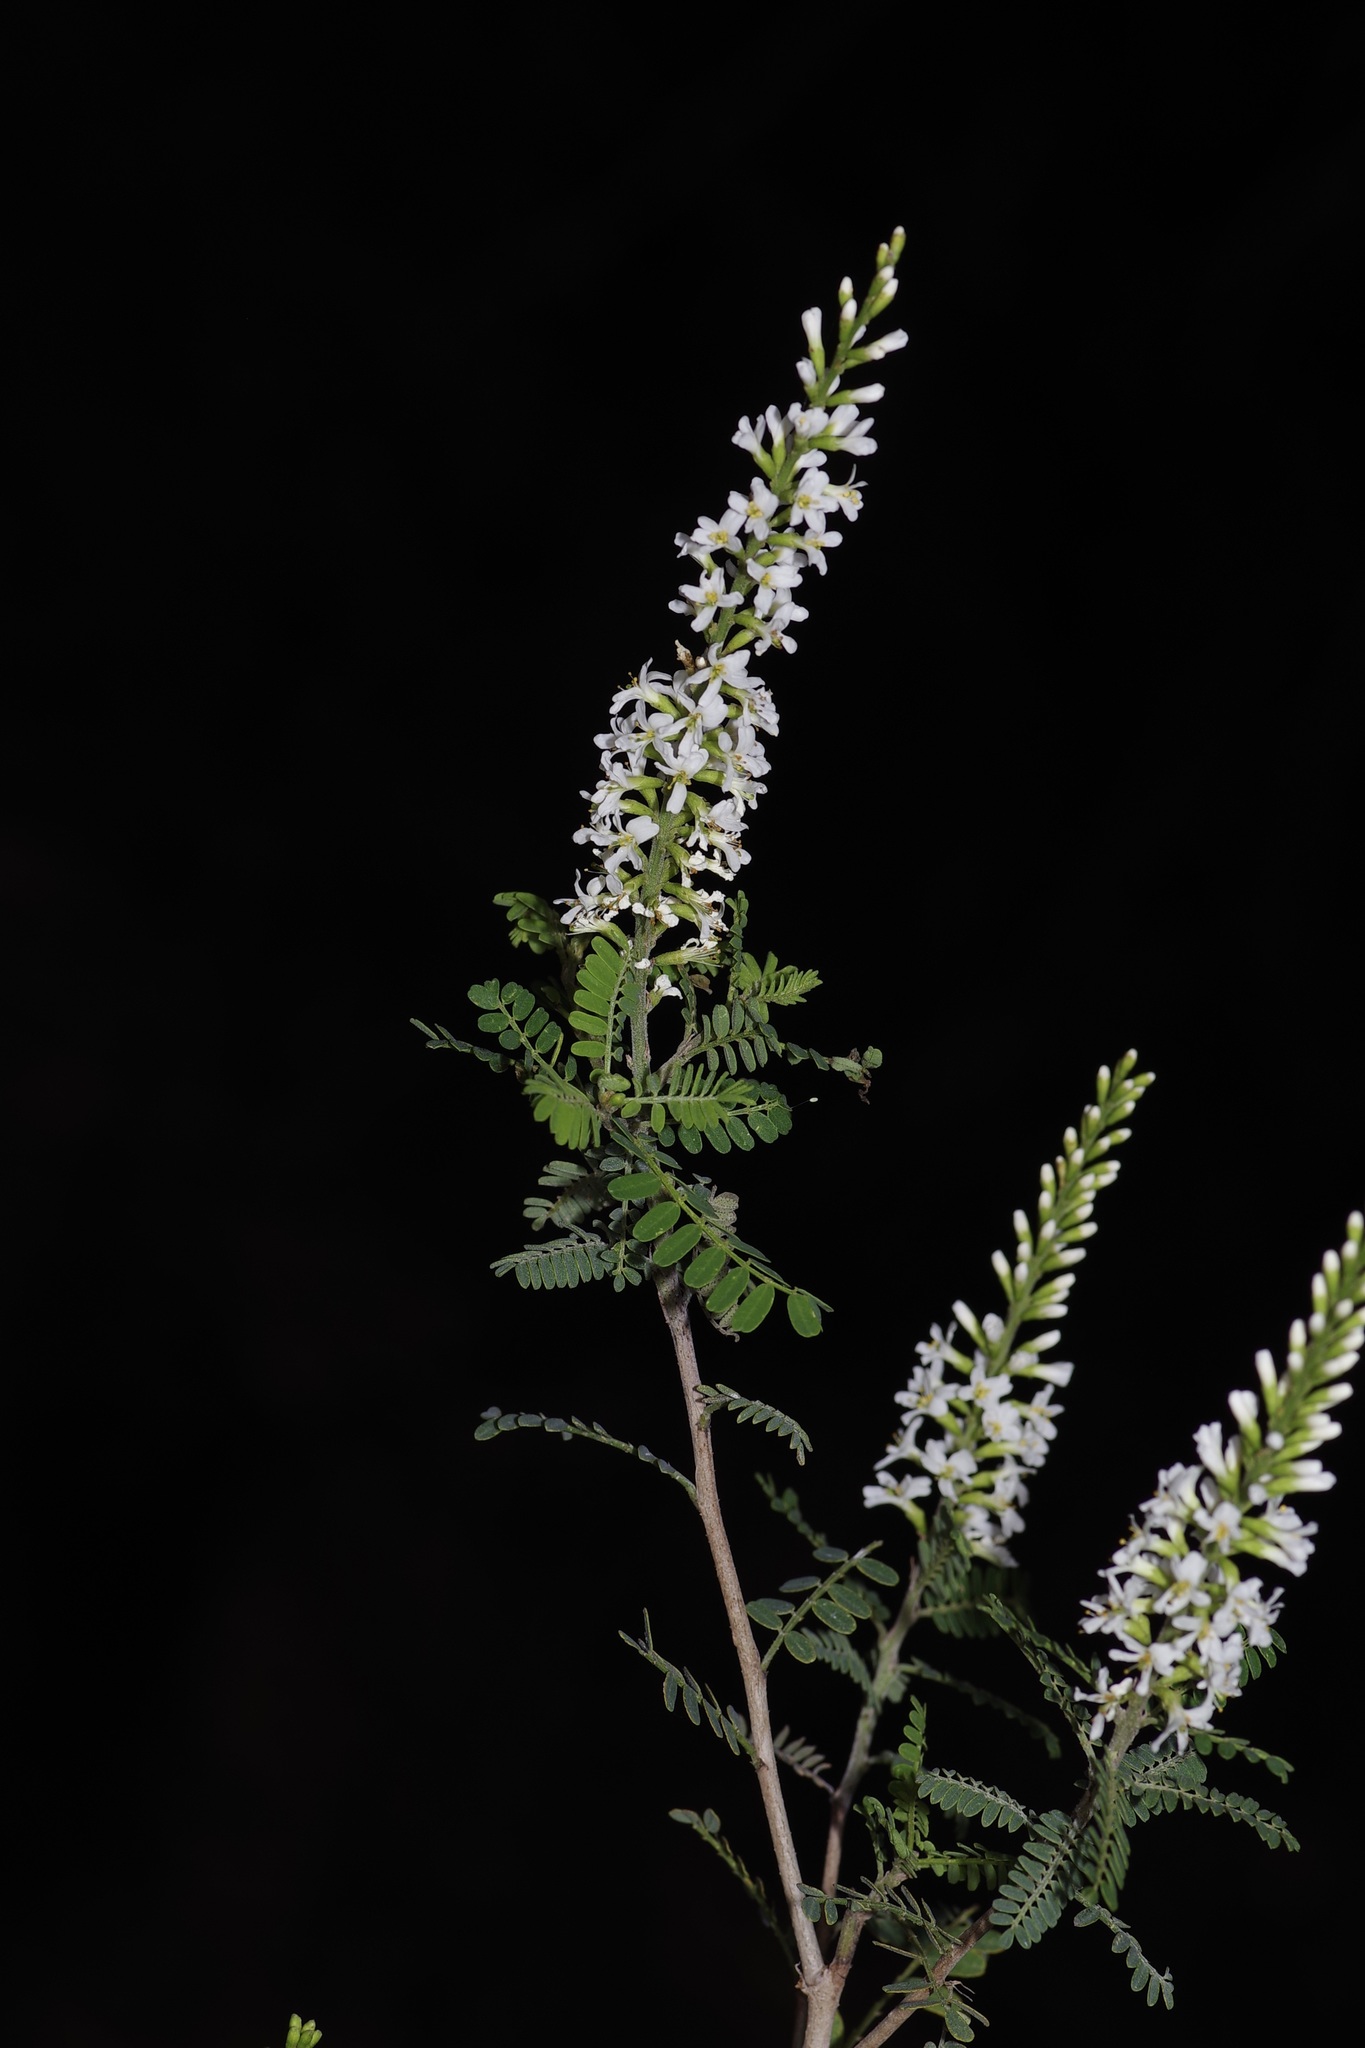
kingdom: Plantae
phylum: Tracheophyta
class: Magnoliopsida
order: Fabales
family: Fabaceae
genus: Eysenhardtia
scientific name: Eysenhardtia texana
